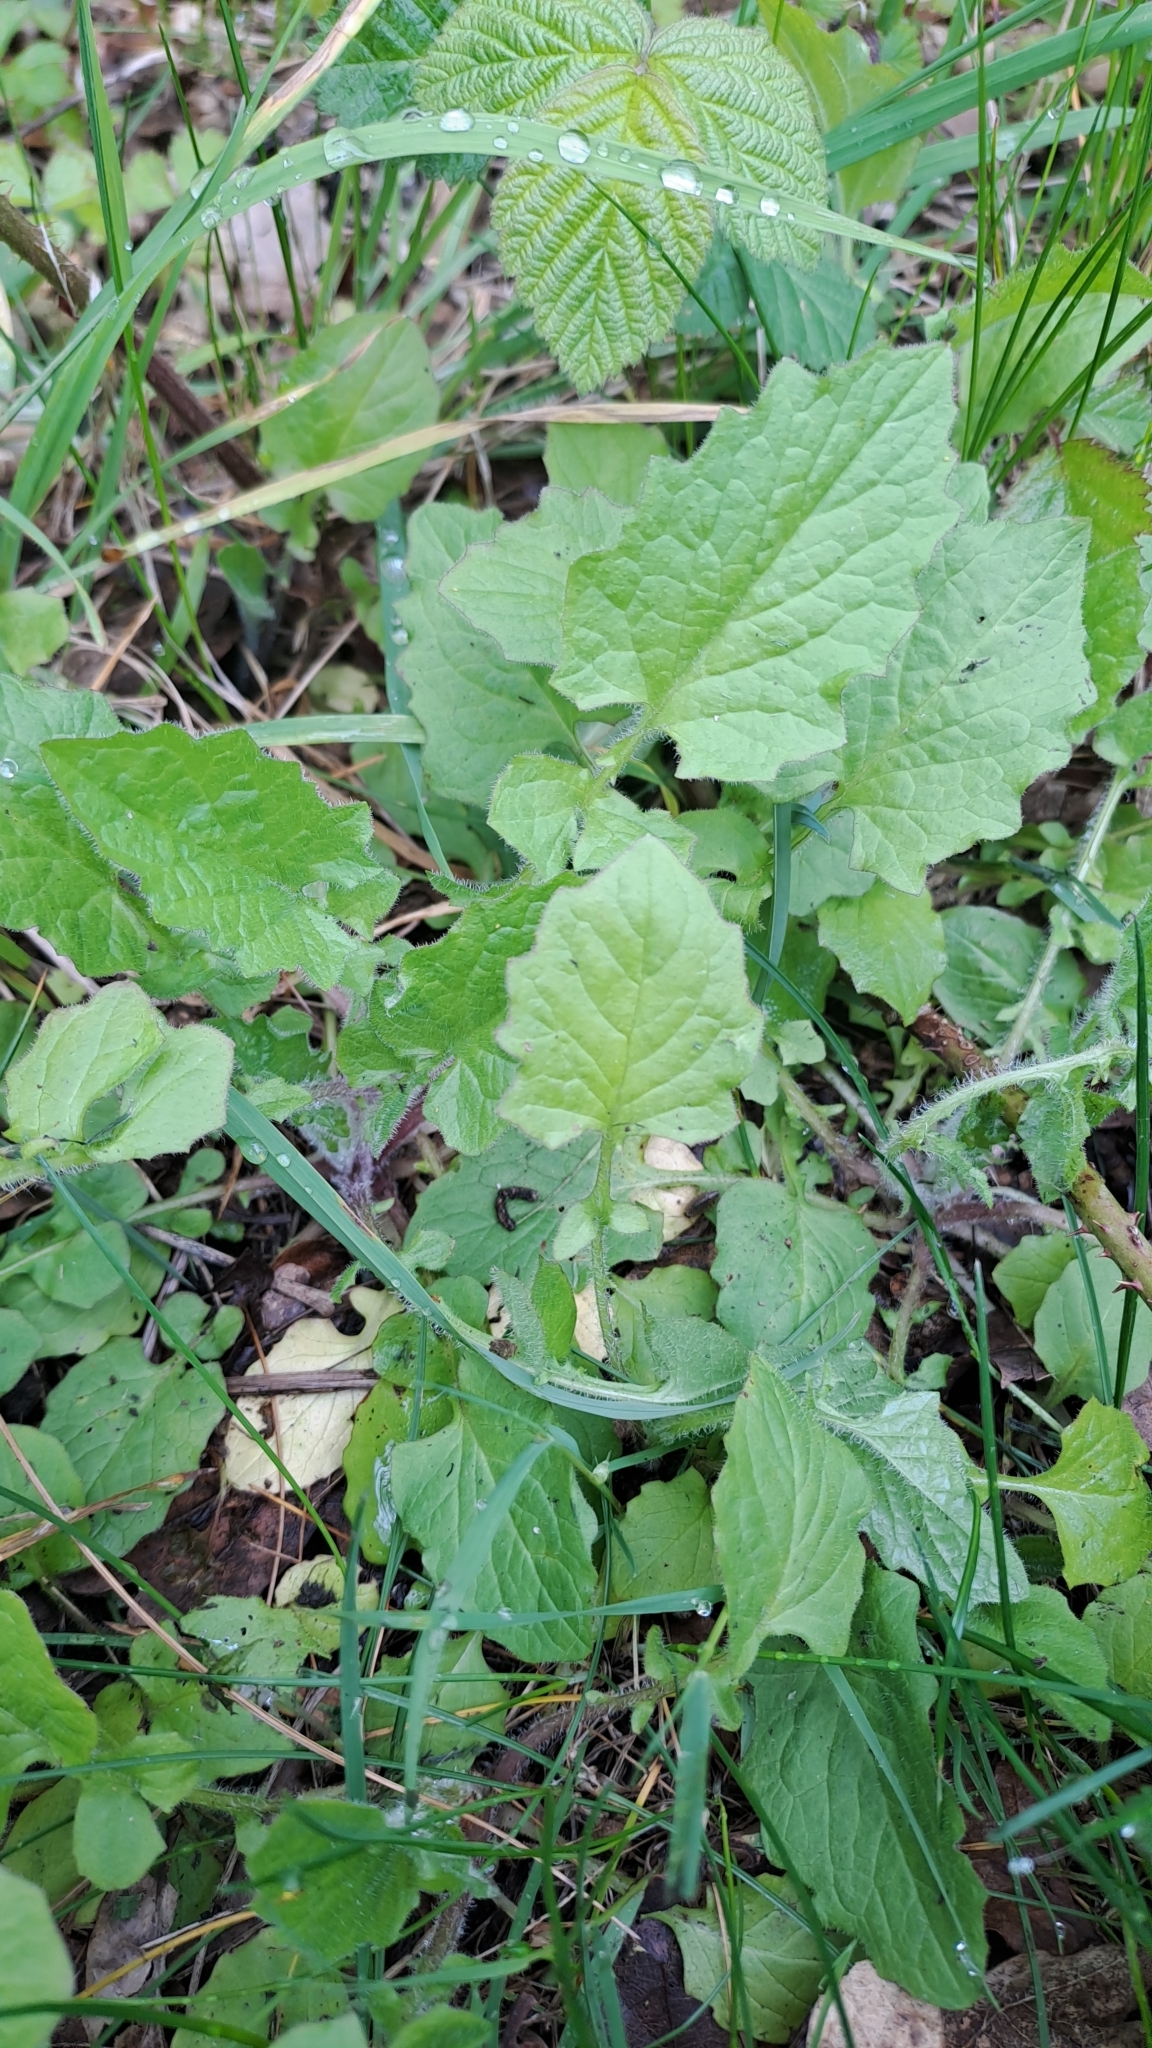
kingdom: Plantae
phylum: Tracheophyta
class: Magnoliopsida
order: Asterales
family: Asteraceae
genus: Lapsana
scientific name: Lapsana communis
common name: Nipplewort
